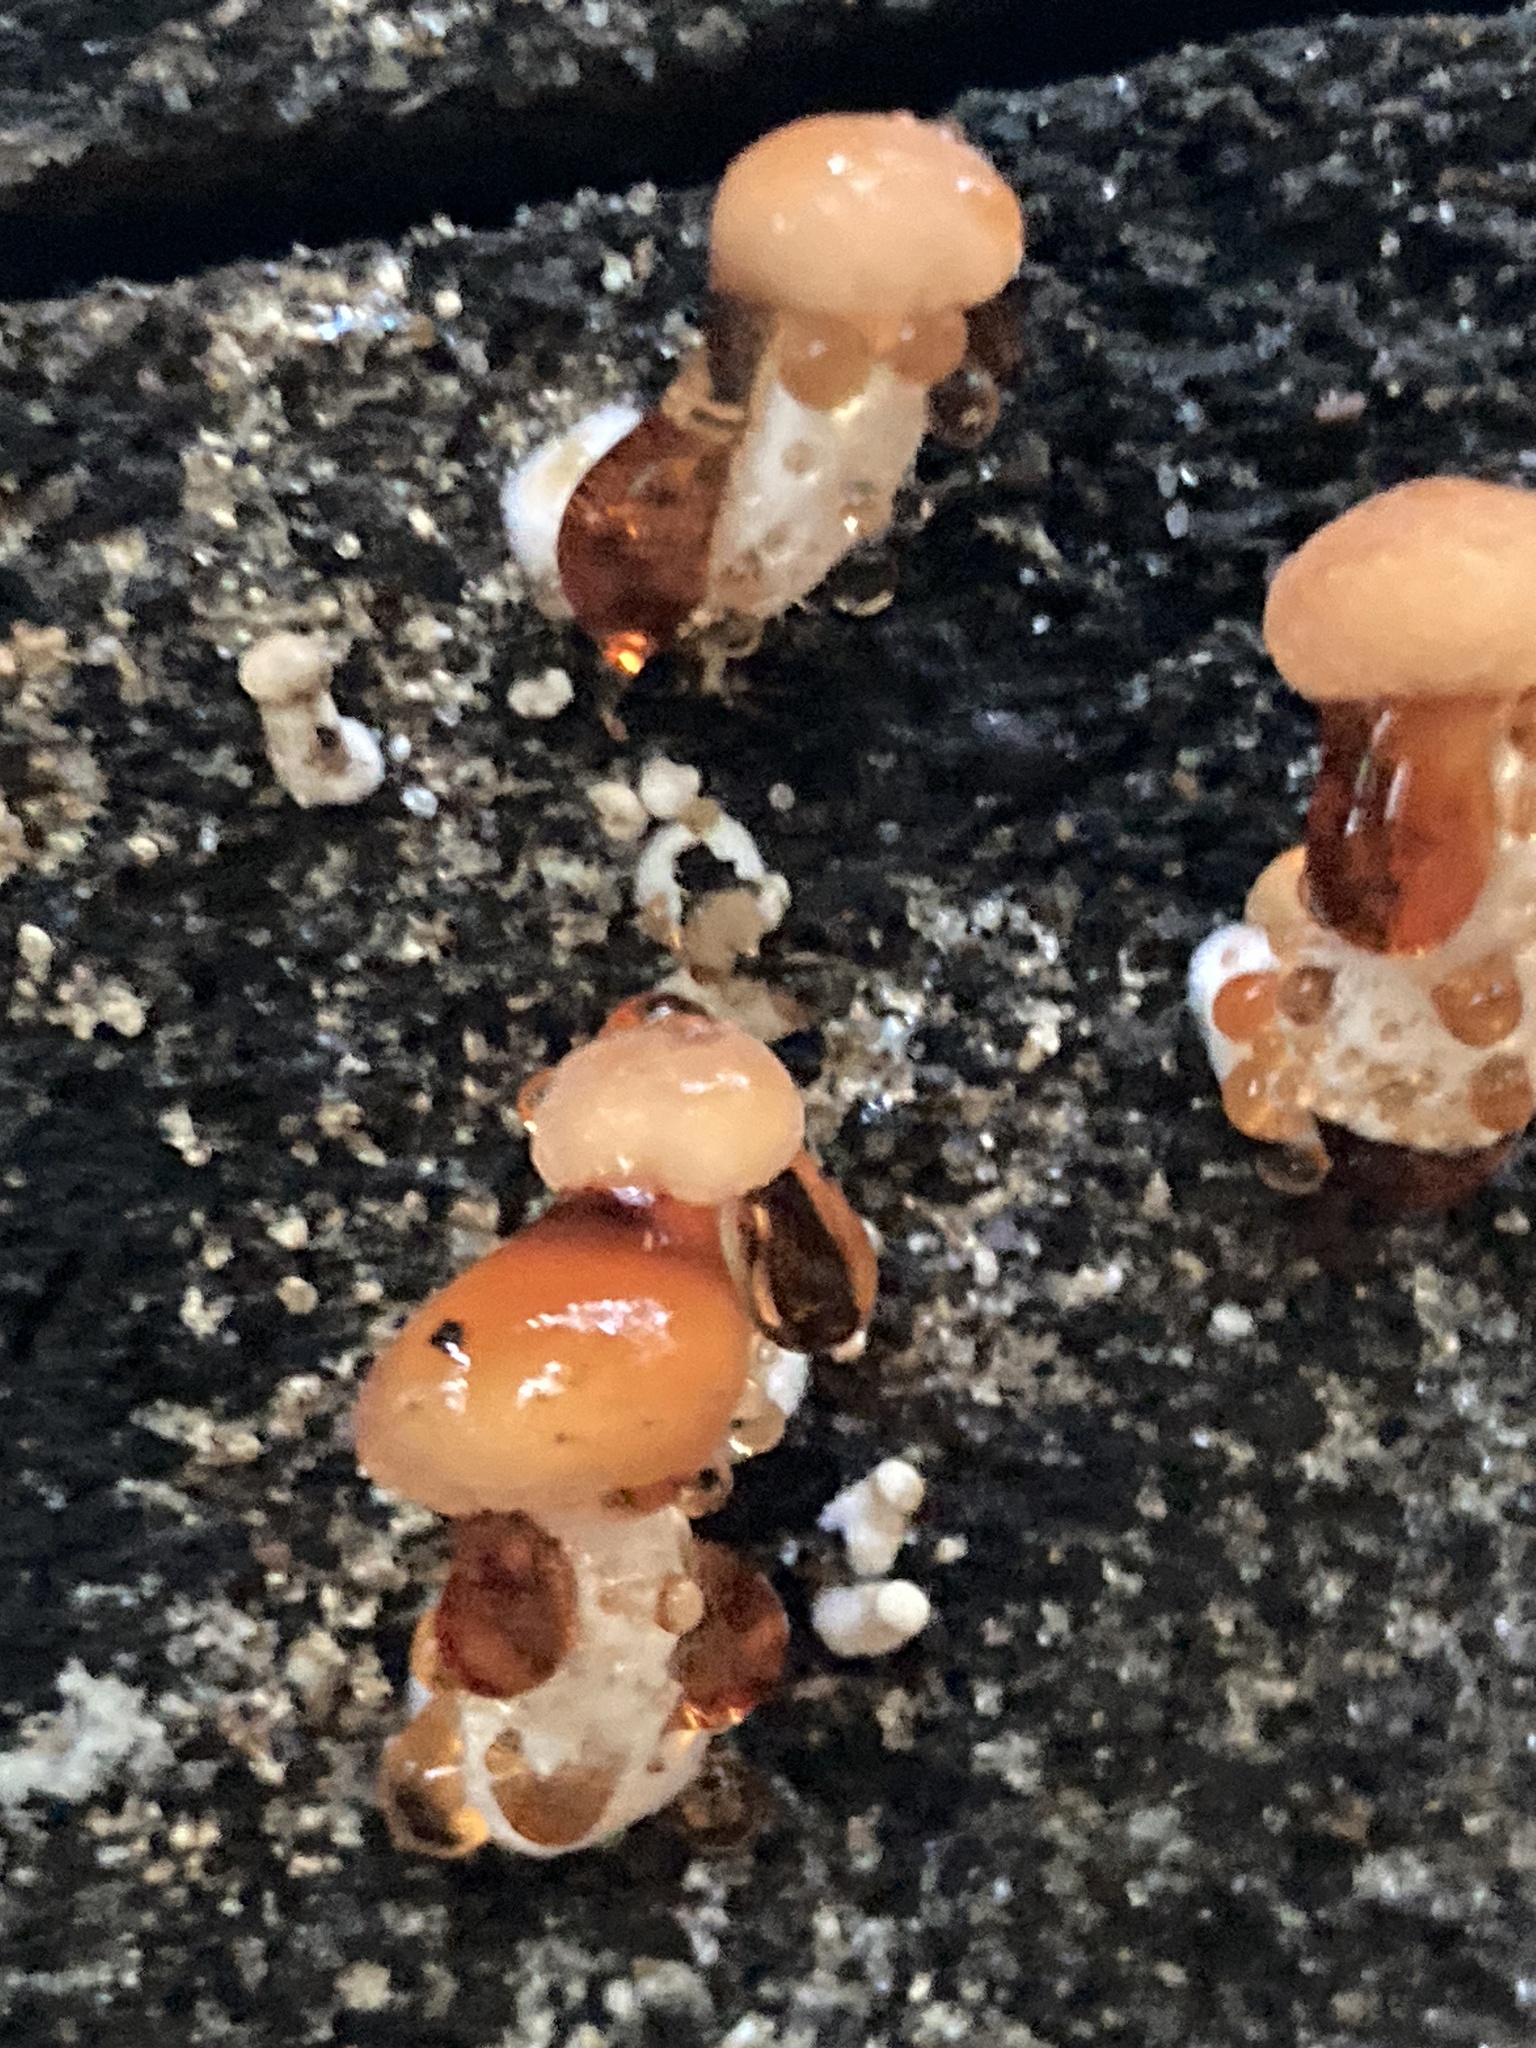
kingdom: Fungi
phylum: Basidiomycota
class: Agaricomycetes
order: Agaricales
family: Physalacriaceae
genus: Rhodotus
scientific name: Rhodotus palmatus
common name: Wrinkled peach
